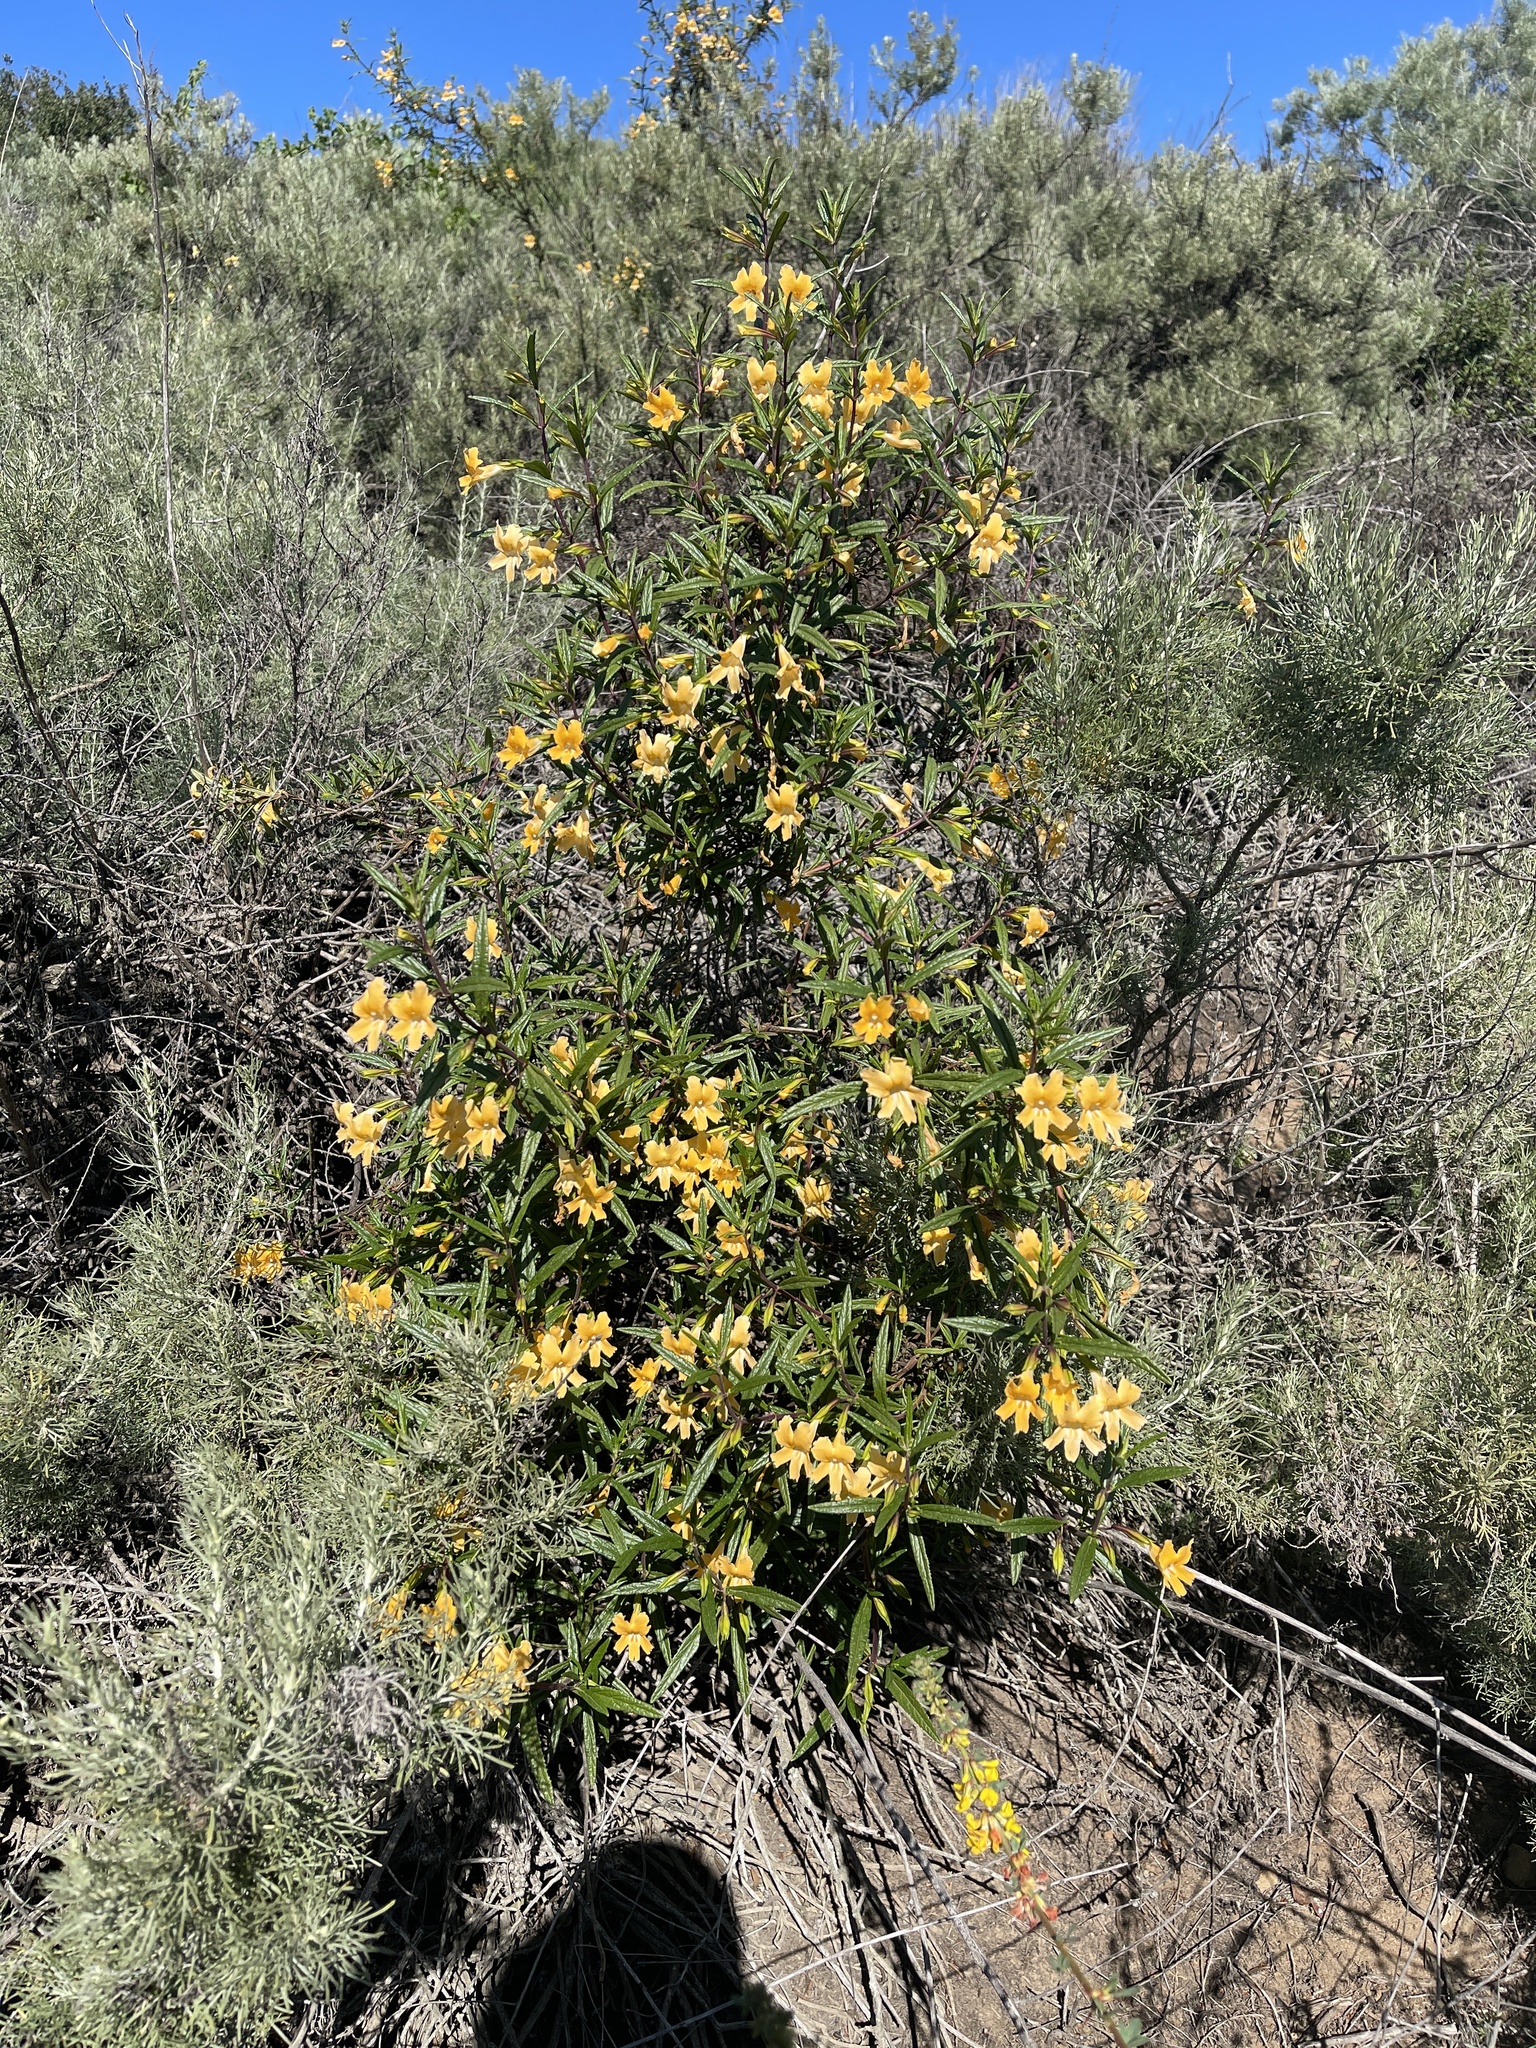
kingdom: Plantae
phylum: Tracheophyta
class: Magnoliopsida
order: Lamiales
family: Phrymaceae
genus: Diplacus
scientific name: Diplacus australis
